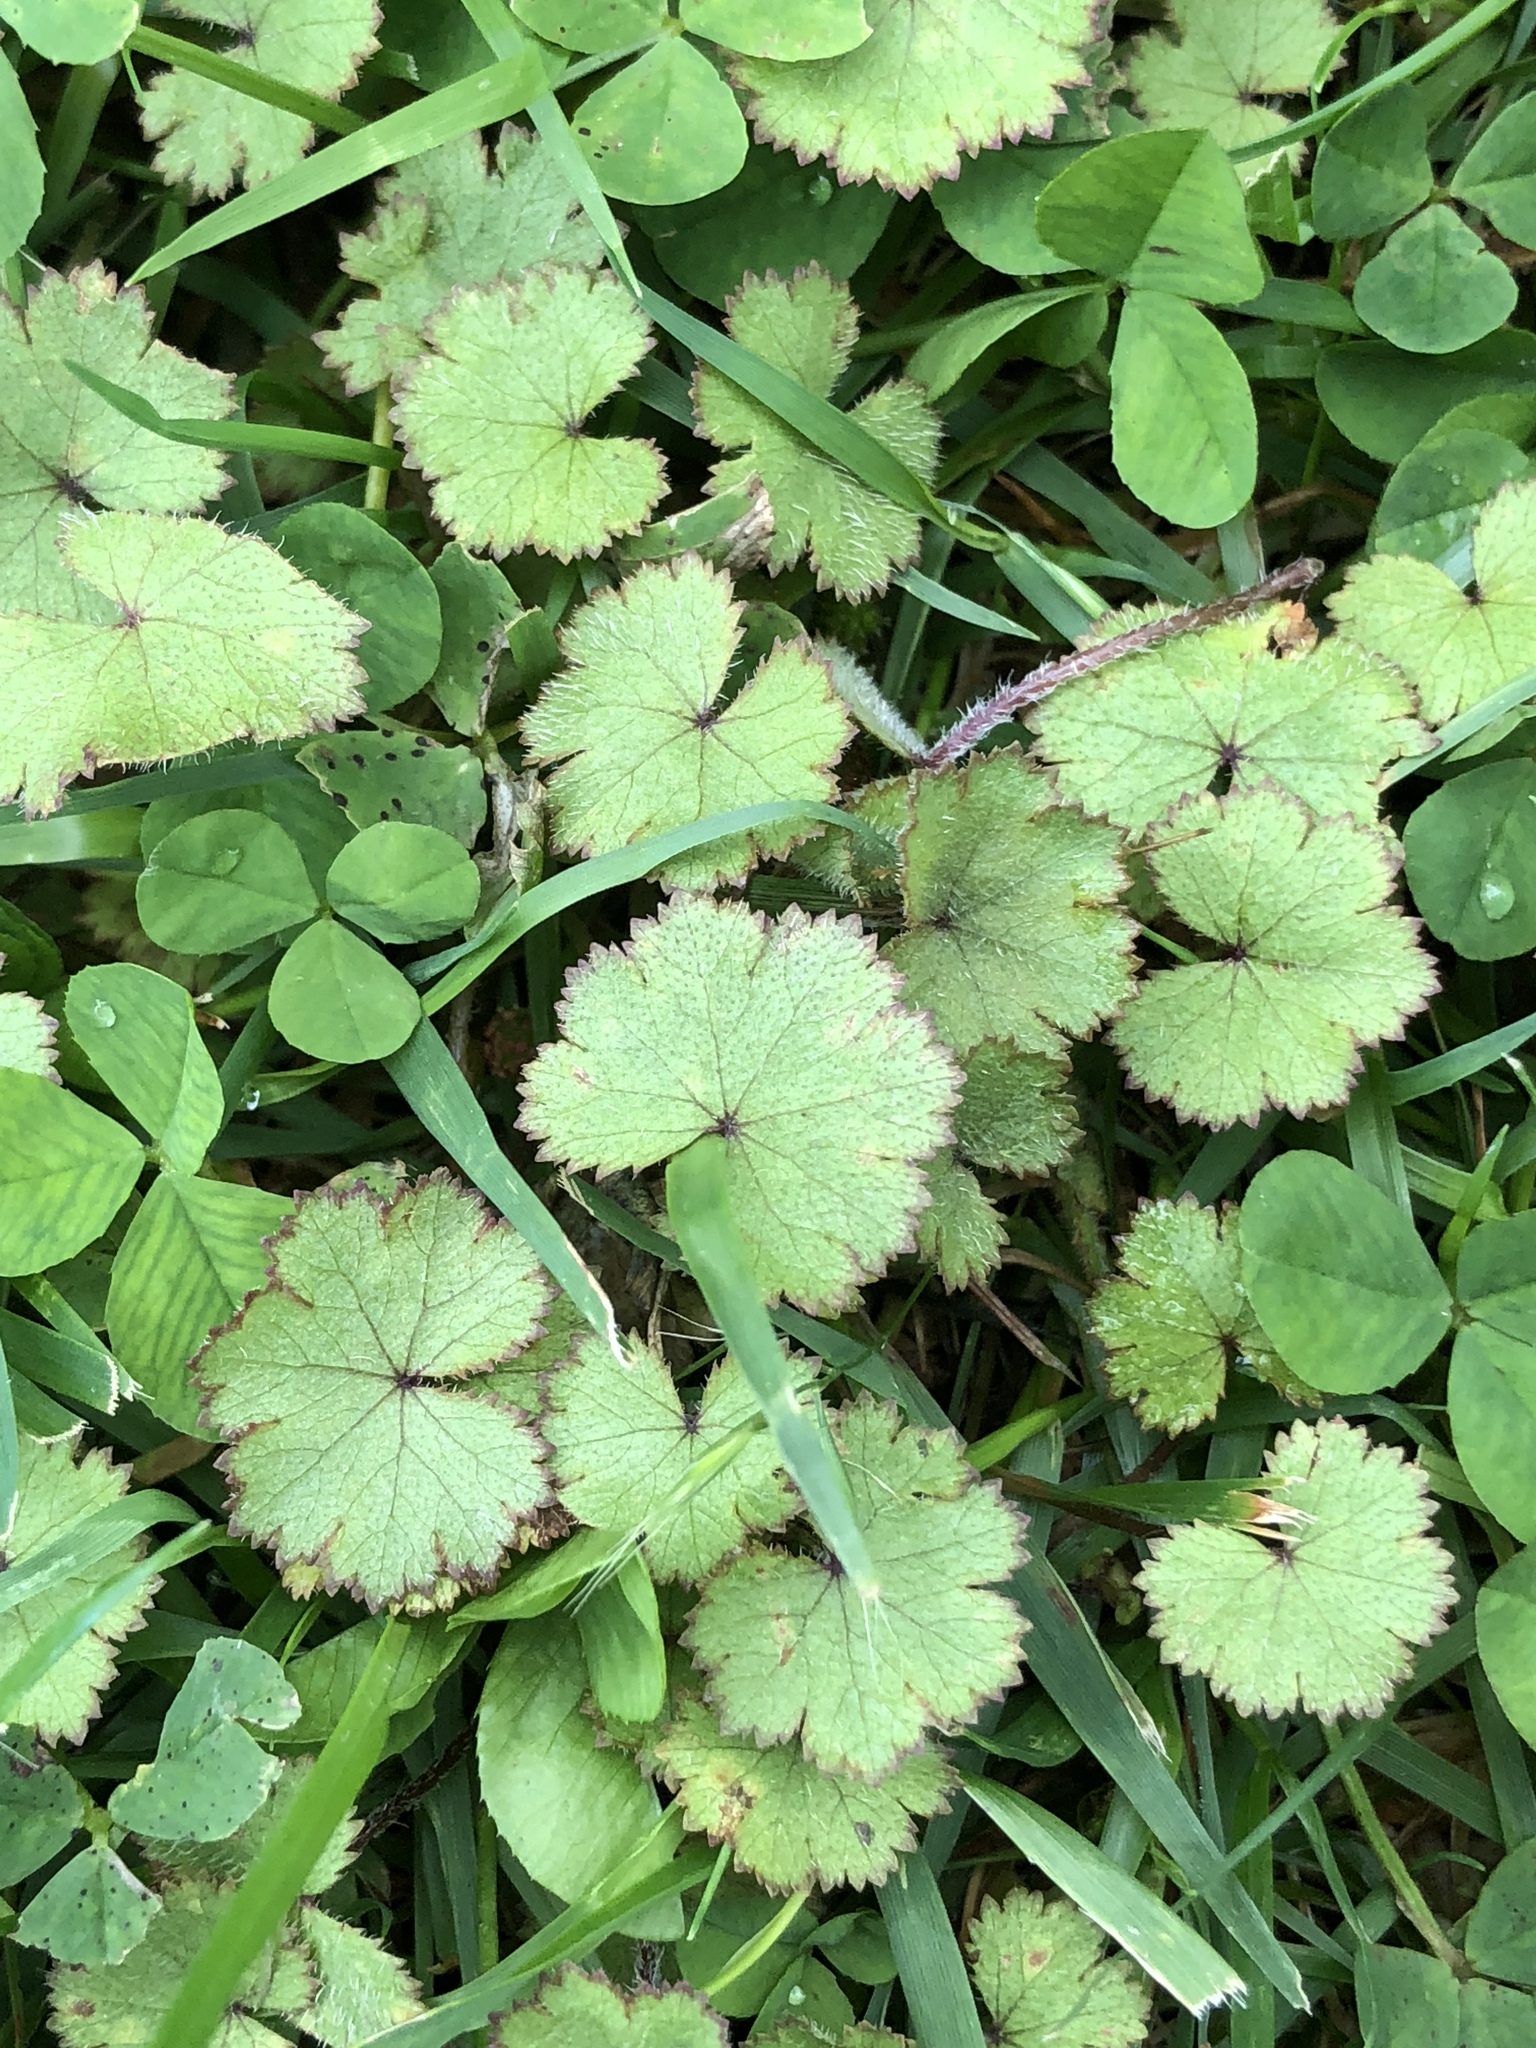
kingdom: Plantae
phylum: Tracheophyta
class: Magnoliopsida
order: Apiales
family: Araliaceae
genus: Hydrocotyle
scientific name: Hydrocotyle moschata
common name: Hairy pennywort
